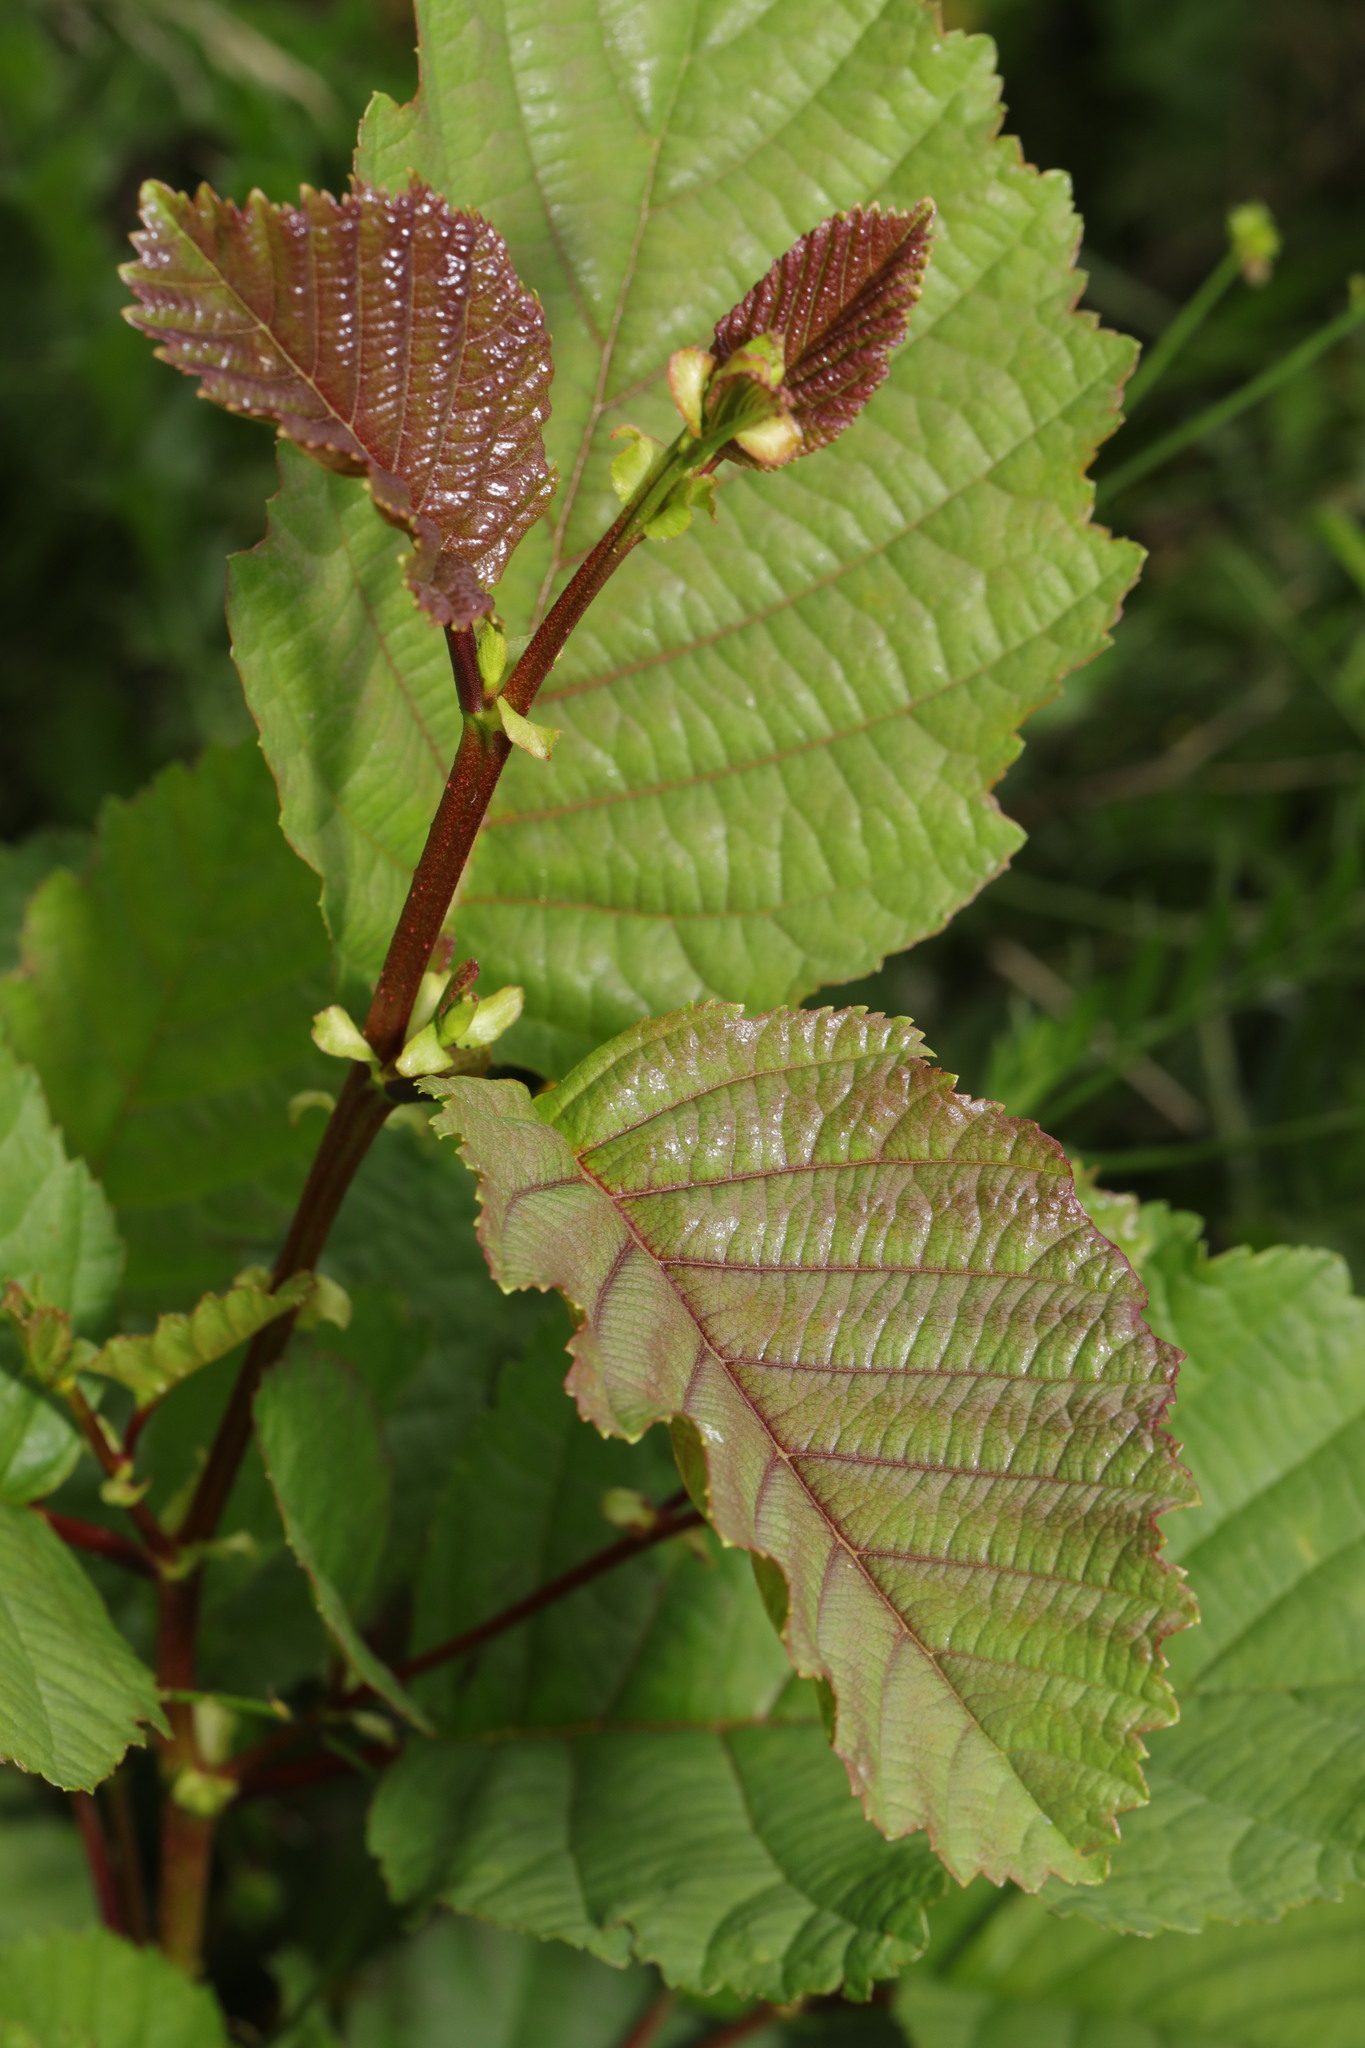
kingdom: Plantae
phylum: Tracheophyta
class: Magnoliopsida
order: Fagales
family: Betulaceae
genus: Alnus
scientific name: Alnus glutinosa
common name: Black alder
